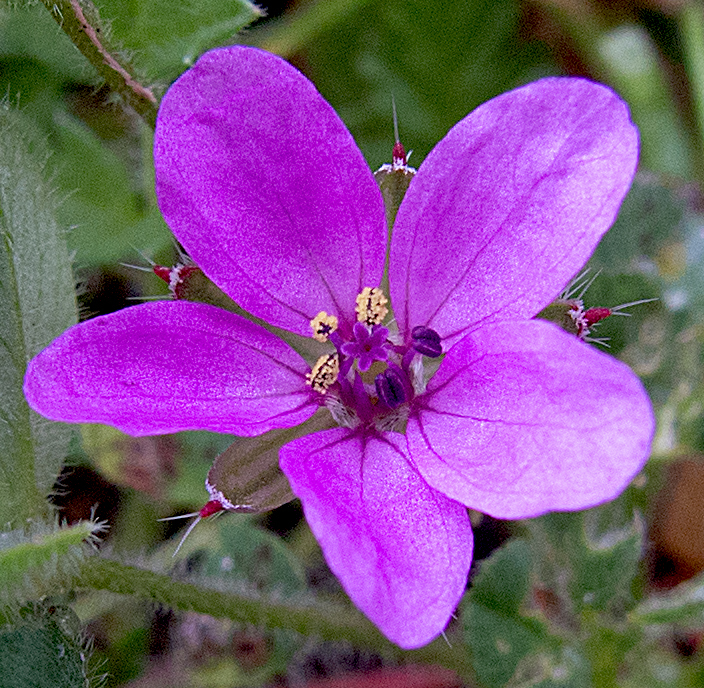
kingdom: Plantae
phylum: Tracheophyta
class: Magnoliopsida
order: Geraniales
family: Geraniaceae
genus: Erodium
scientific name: Erodium cicutarium
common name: Common stork's-bill
